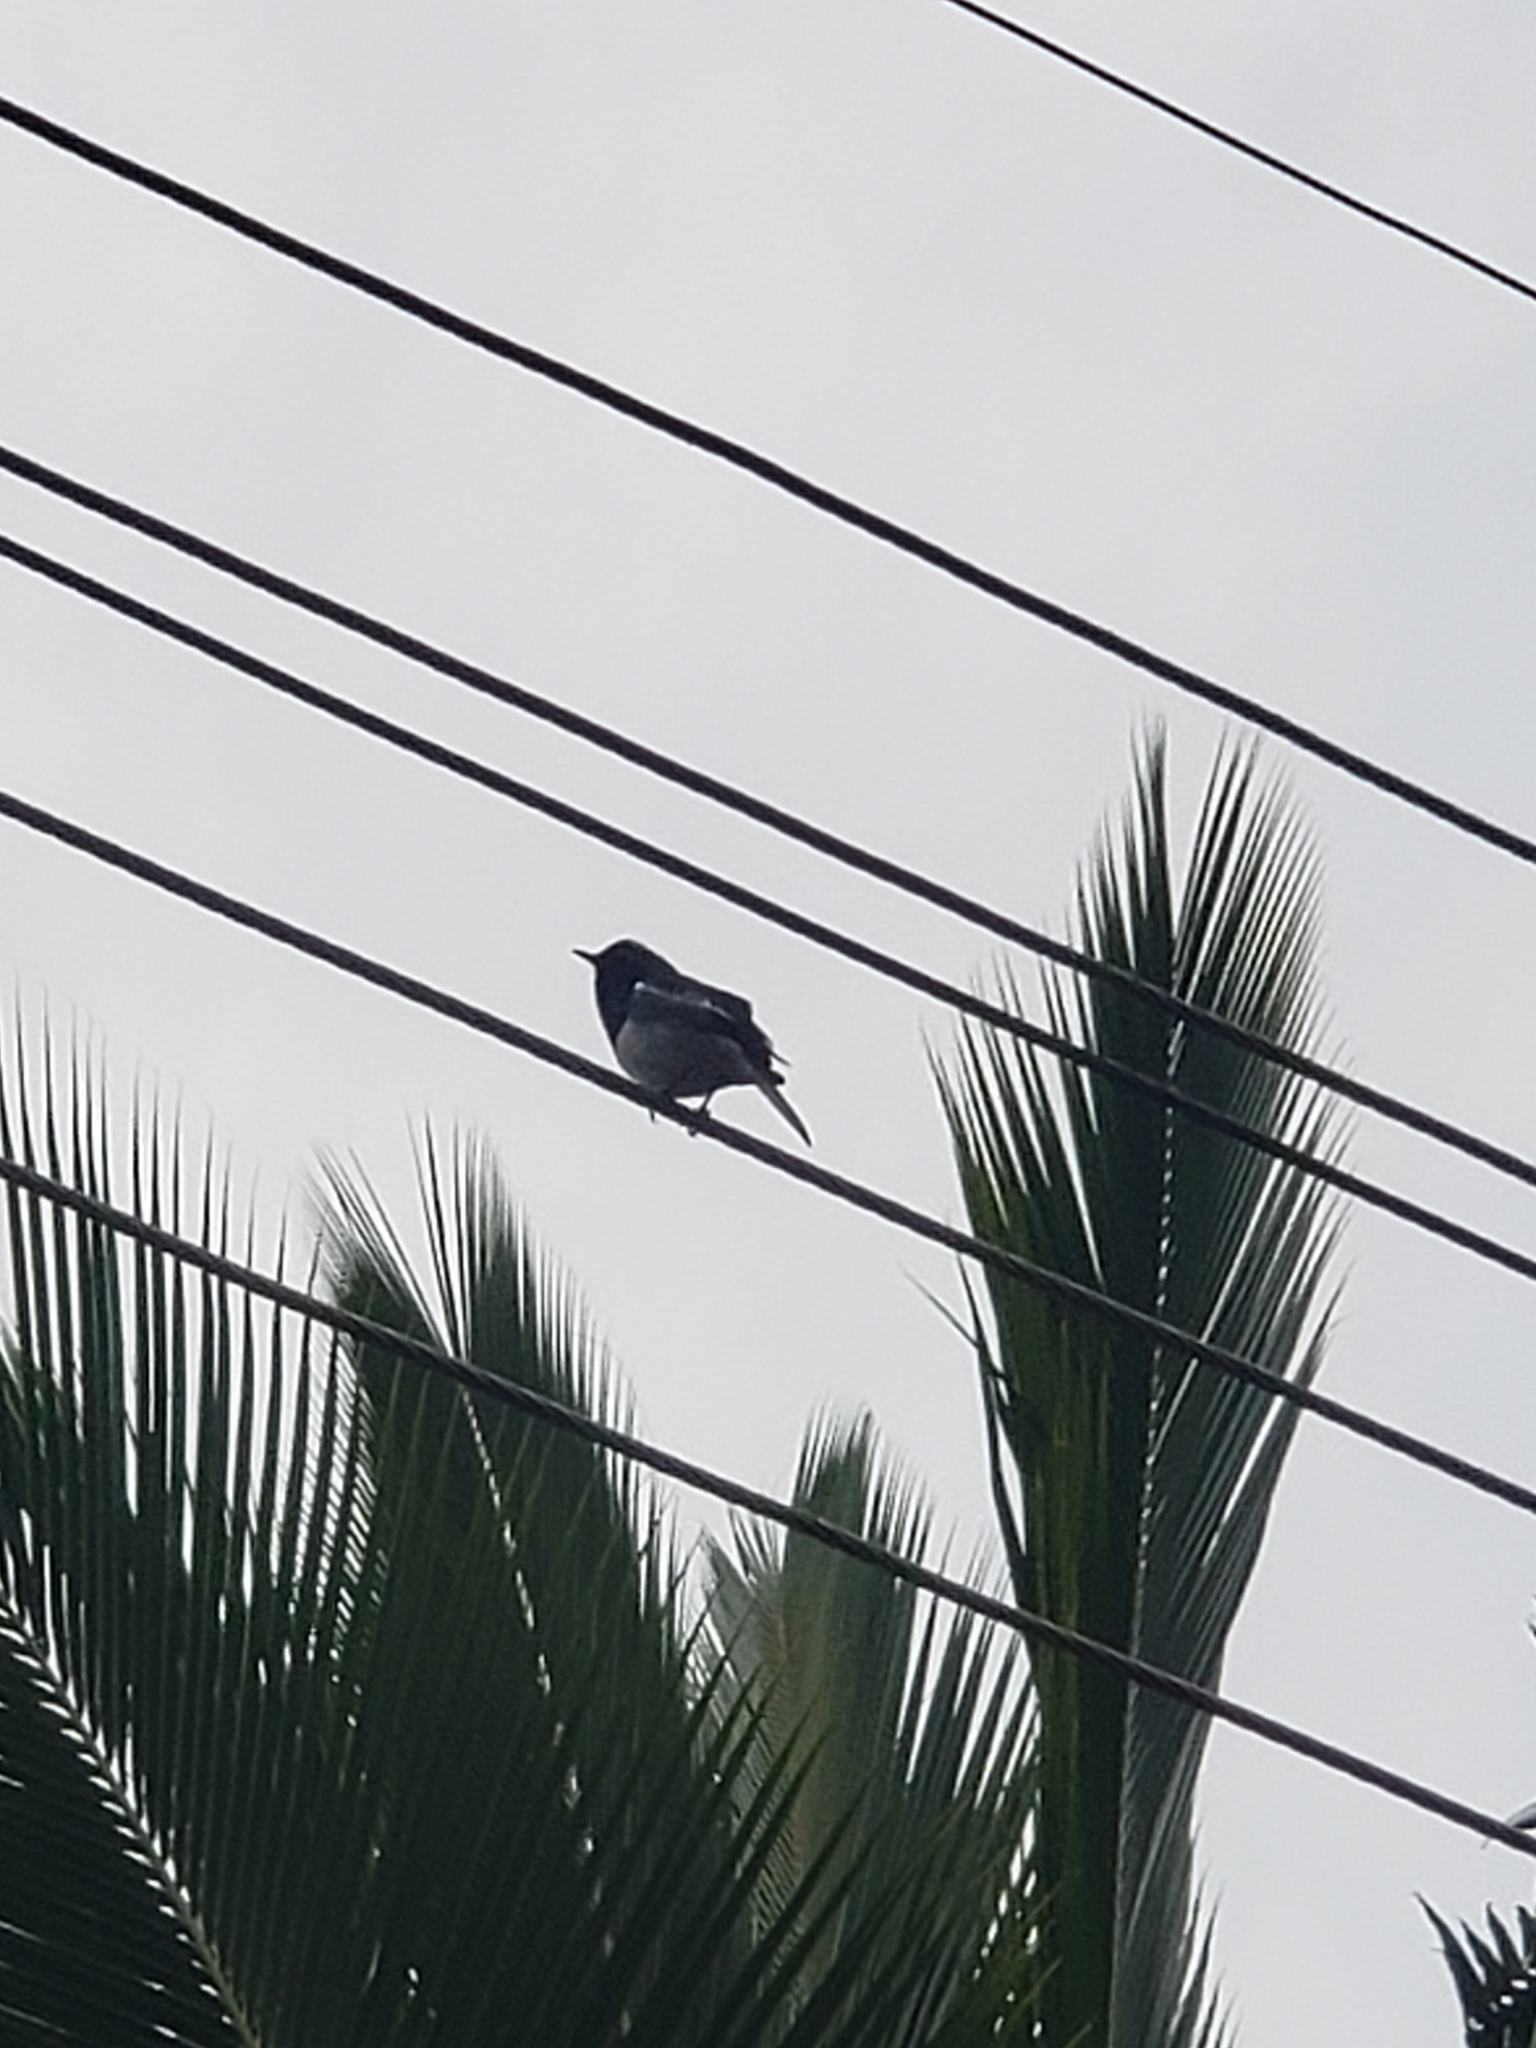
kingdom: Animalia
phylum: Chordata
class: Aves
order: Passeriformes
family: Muscicapidae
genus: Copsychus
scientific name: Copsychus saularis
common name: Oriental magpie-robin
